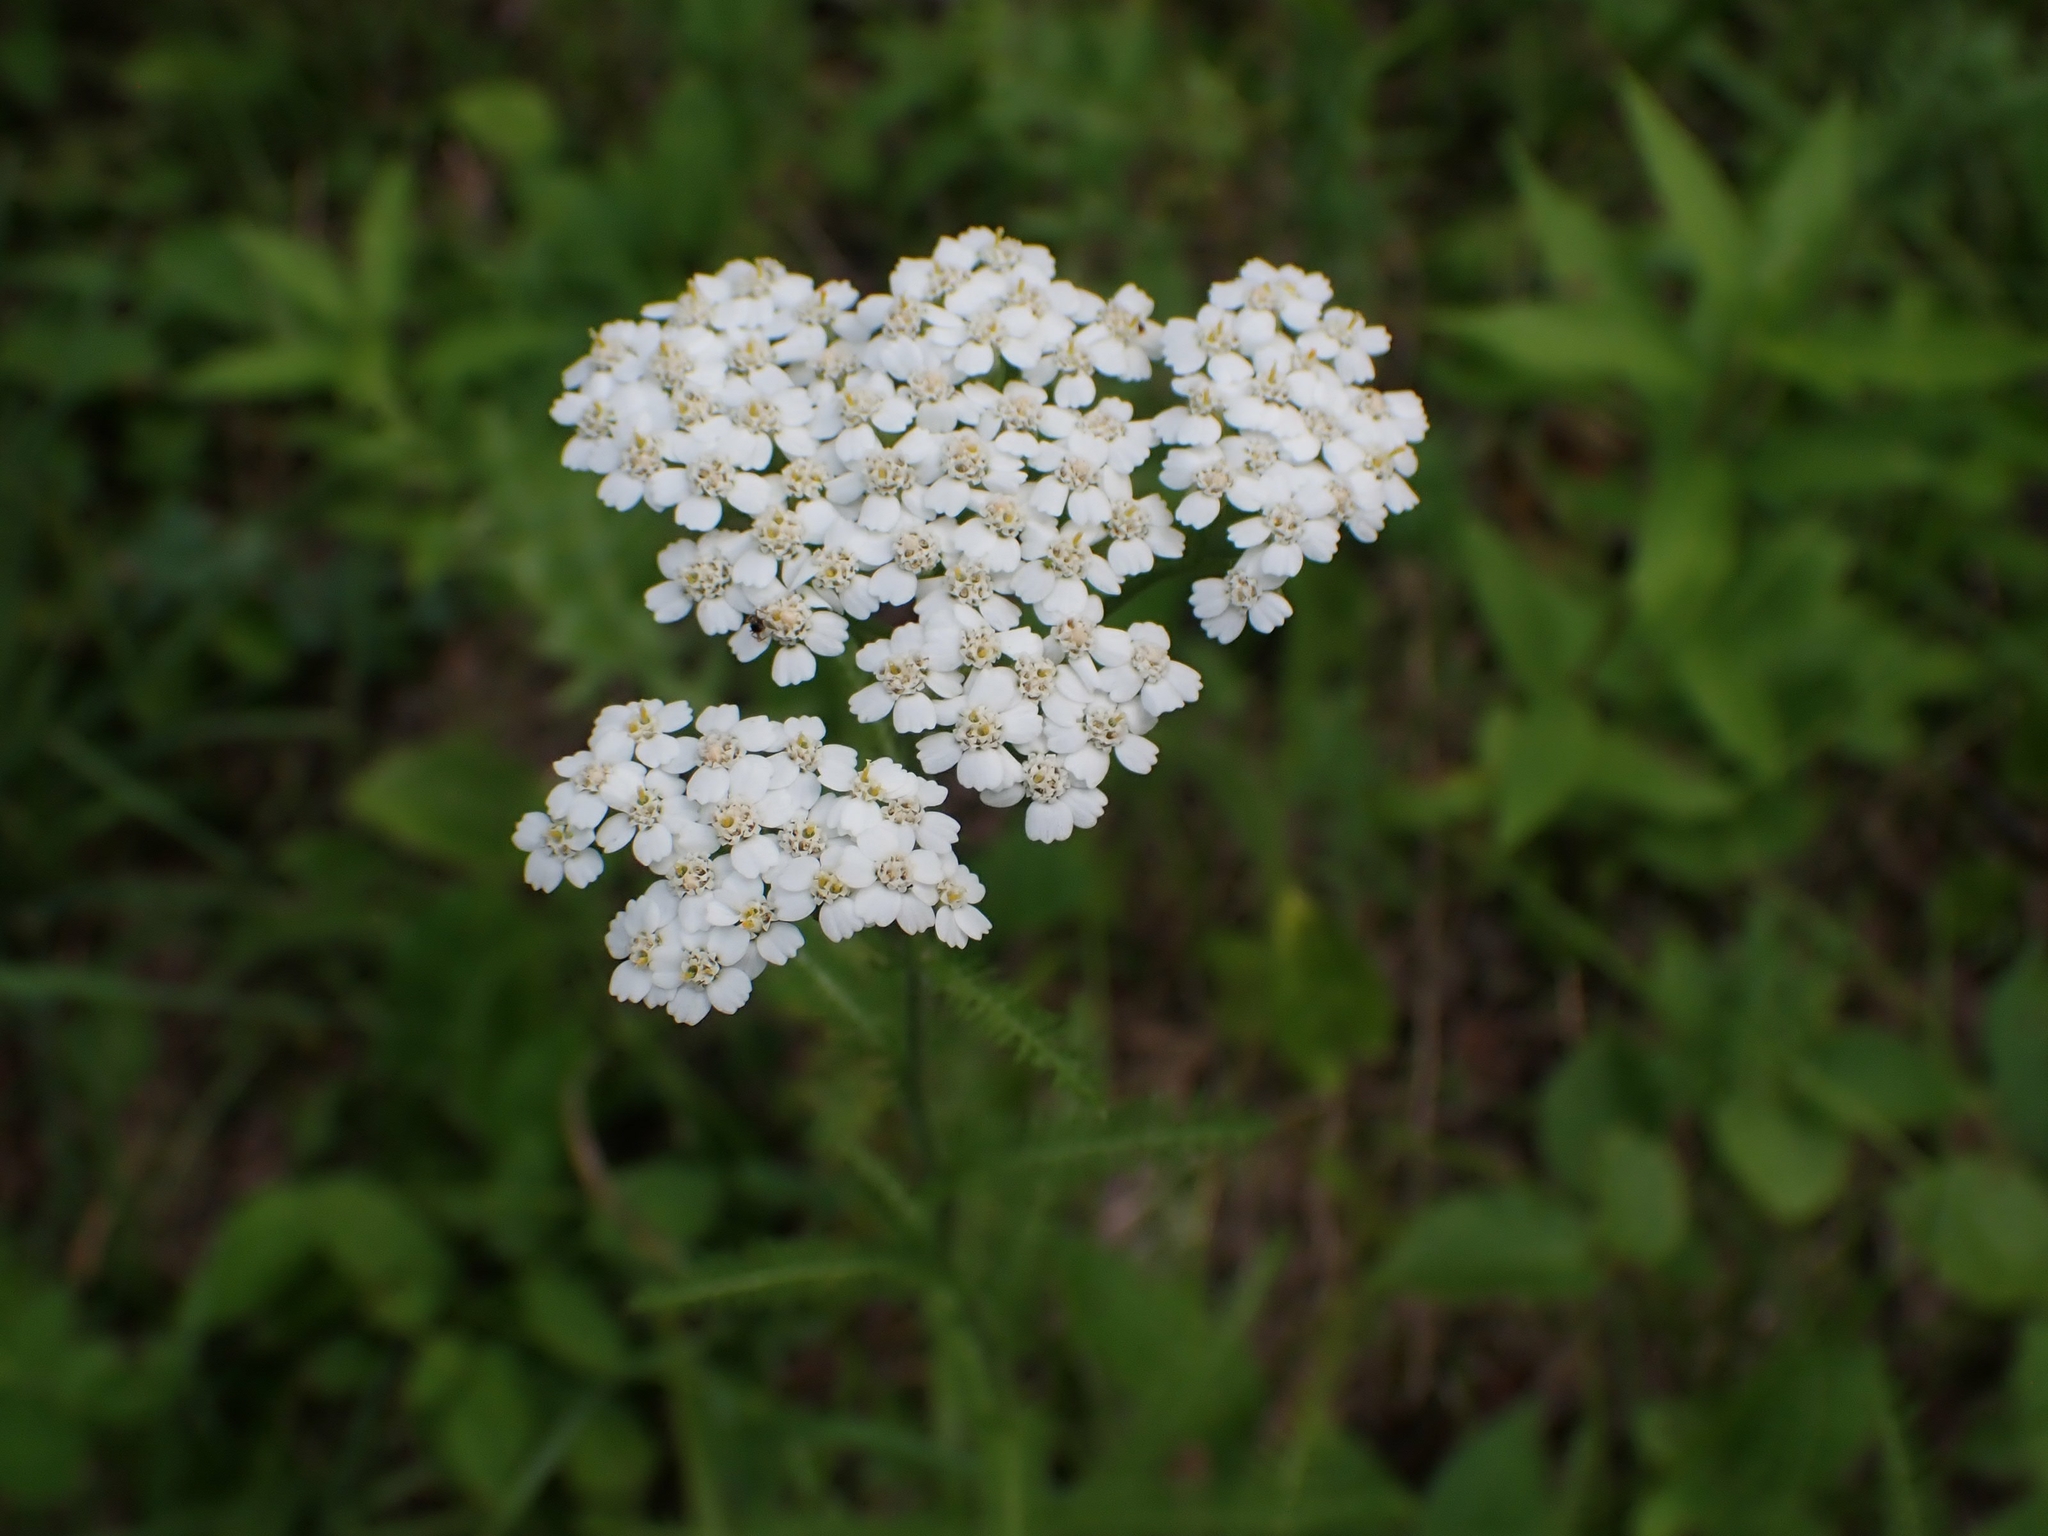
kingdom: Plantae
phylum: Tracheophyta
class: Magnoliopsida
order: Asterales
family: Asteraceae
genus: Achillea
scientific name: Achillea millefolium
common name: Yarrow
